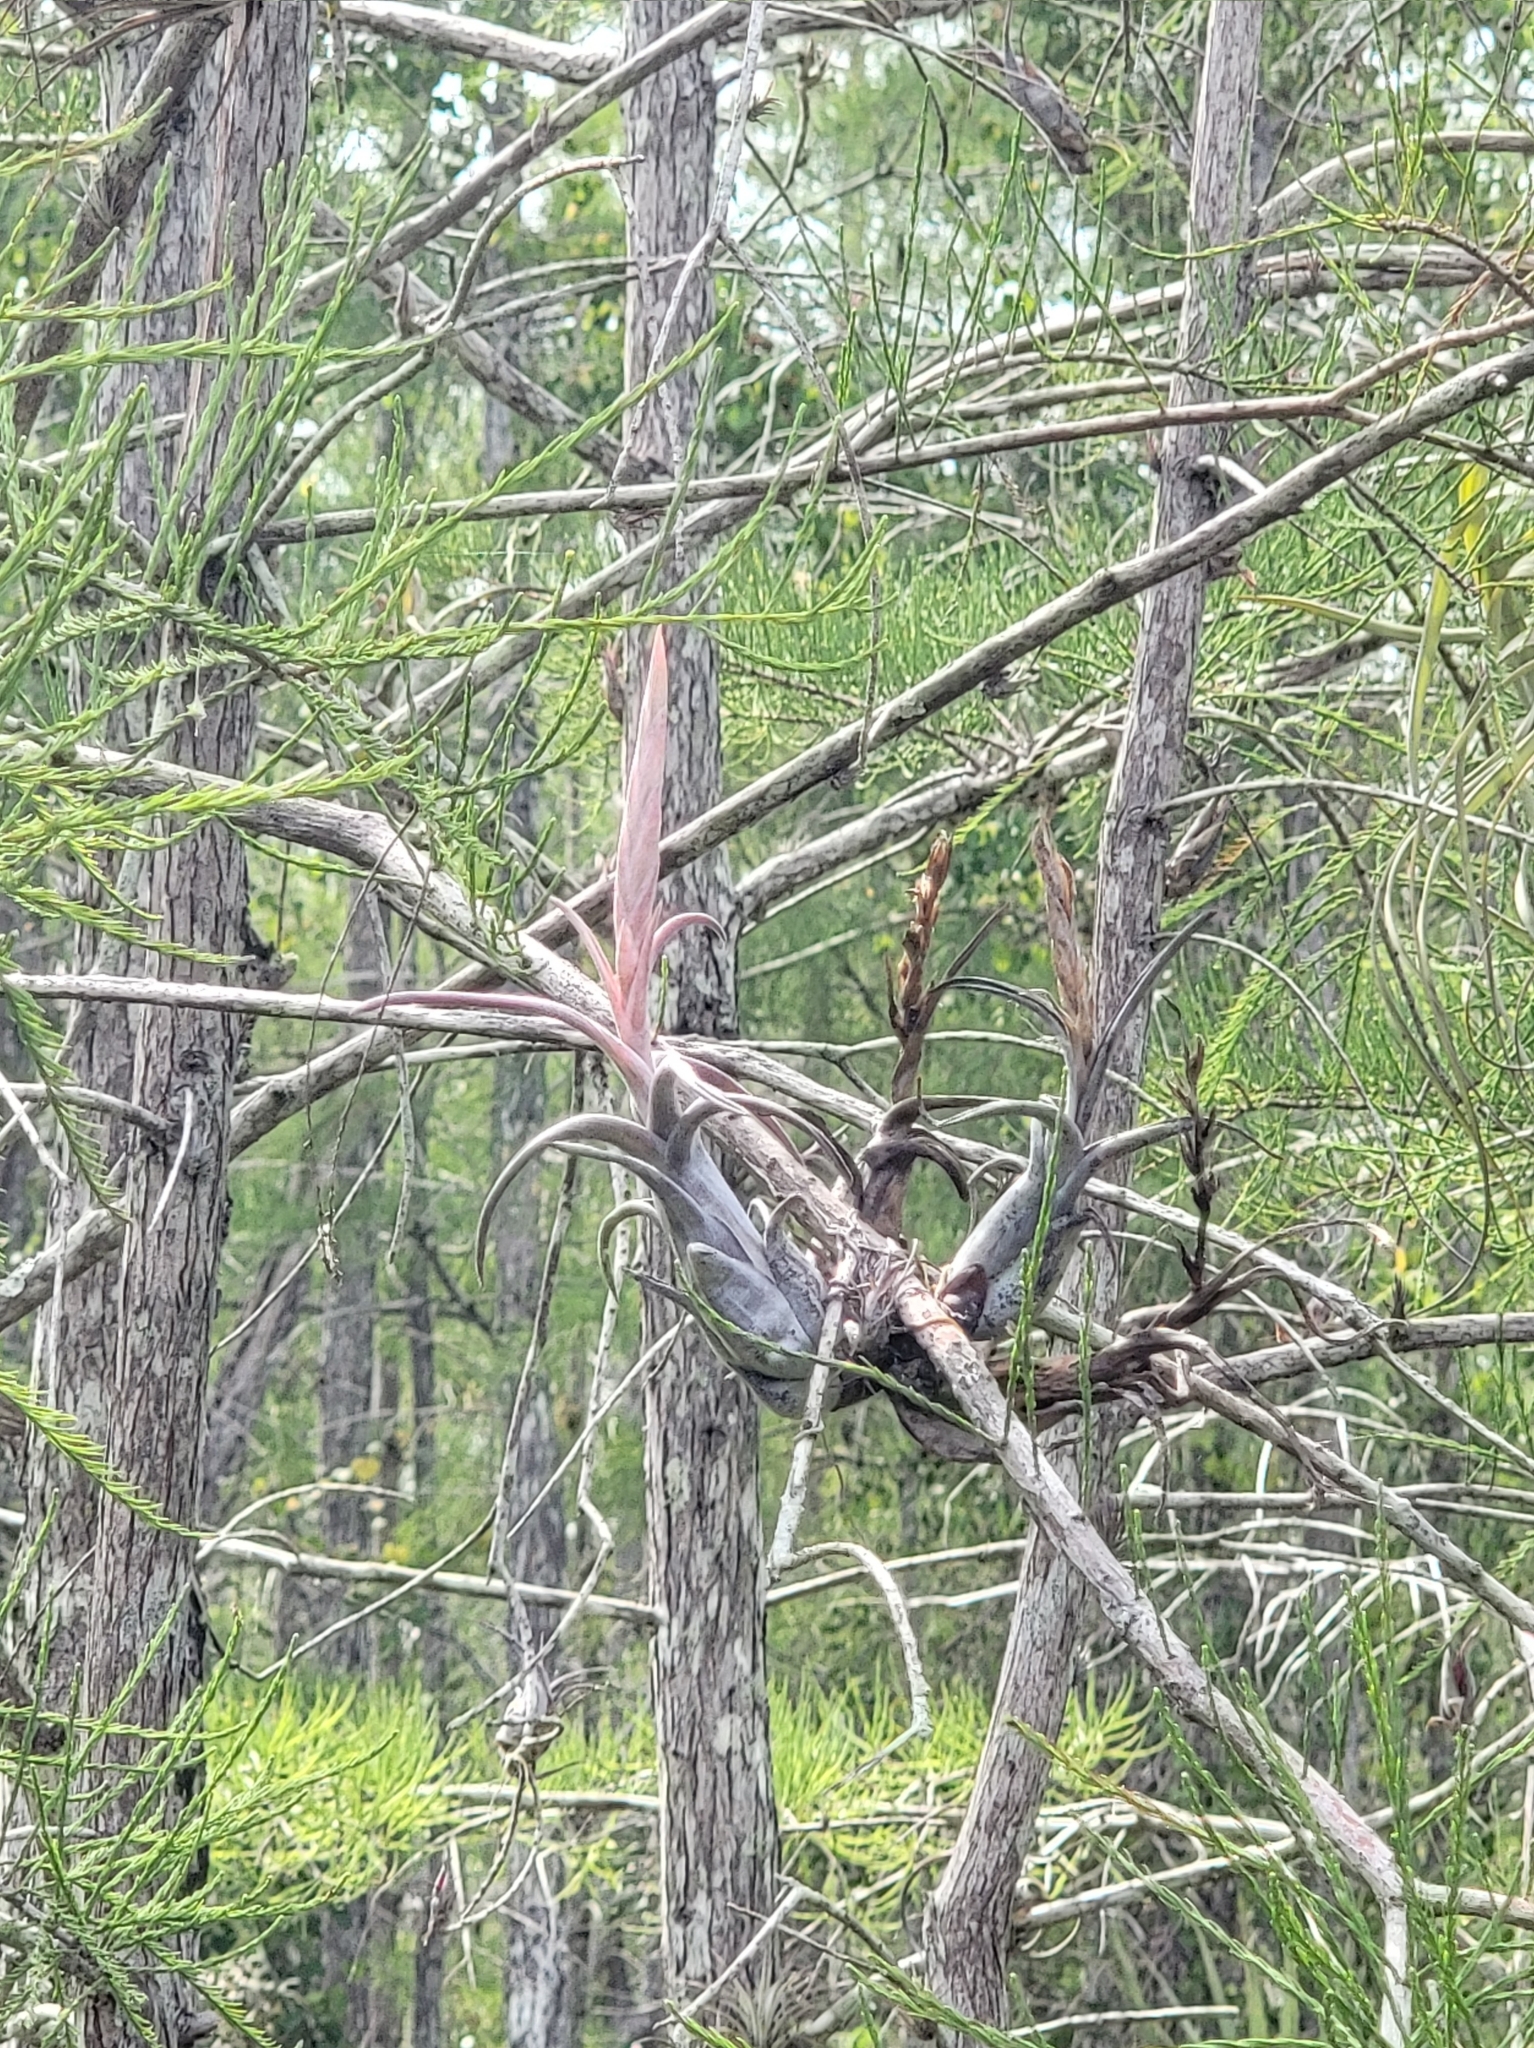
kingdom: Plantae
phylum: Tracheophyta
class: Liliopsida
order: Poales
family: Bromeliaceae
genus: Tillandsia
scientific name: Tillandsia paucifolia
